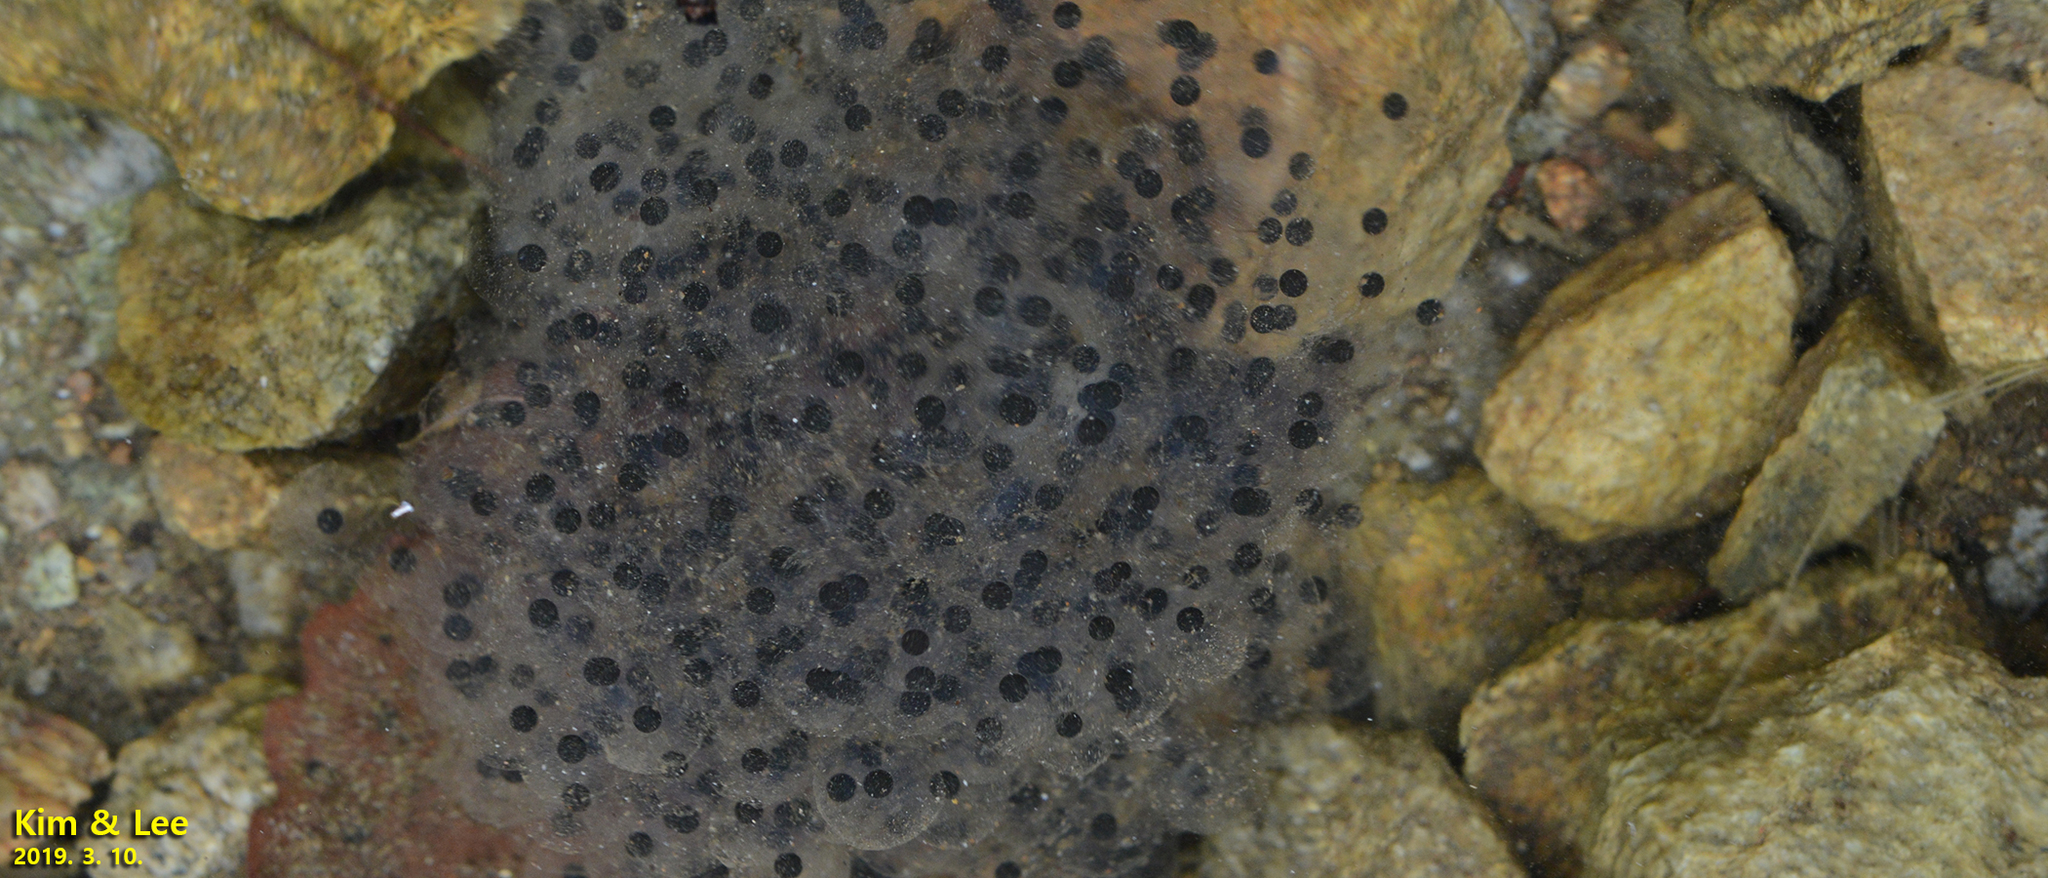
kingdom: Animalia
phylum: Chordata
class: Amphibia
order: Anura
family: Ranidae
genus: Rana
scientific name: Rana huanrenensis
